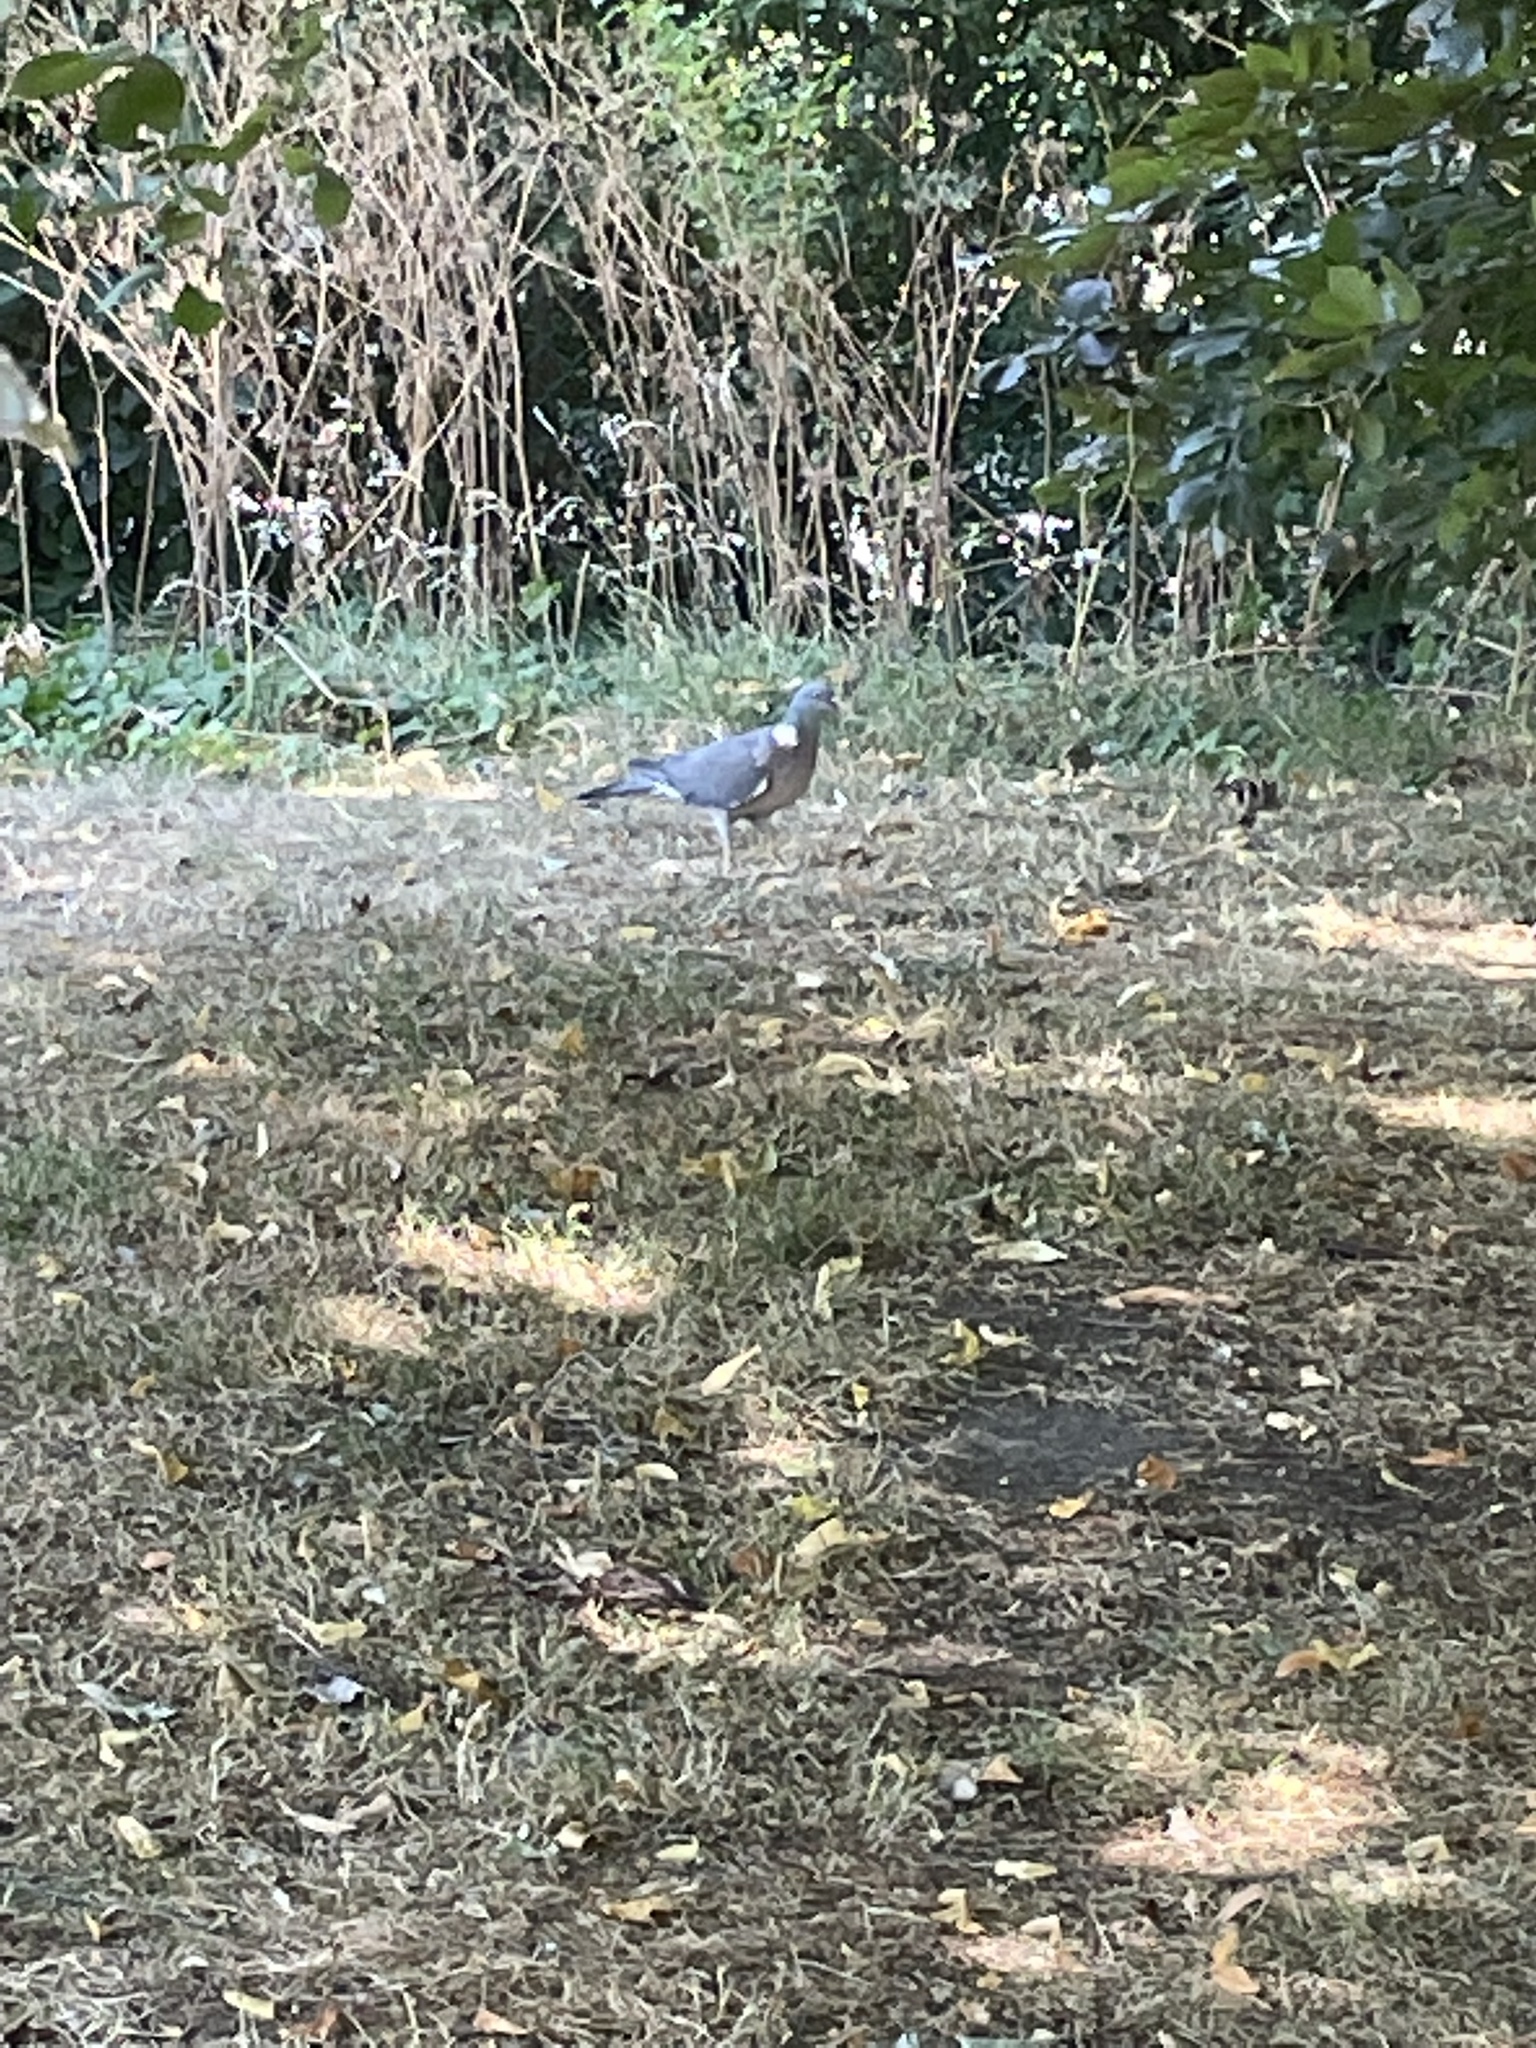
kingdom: Animalia
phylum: Chordata
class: Aves
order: Columbiformes
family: Columbidae
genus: Columba
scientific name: Columba palumbus
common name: Common wood pigeon
